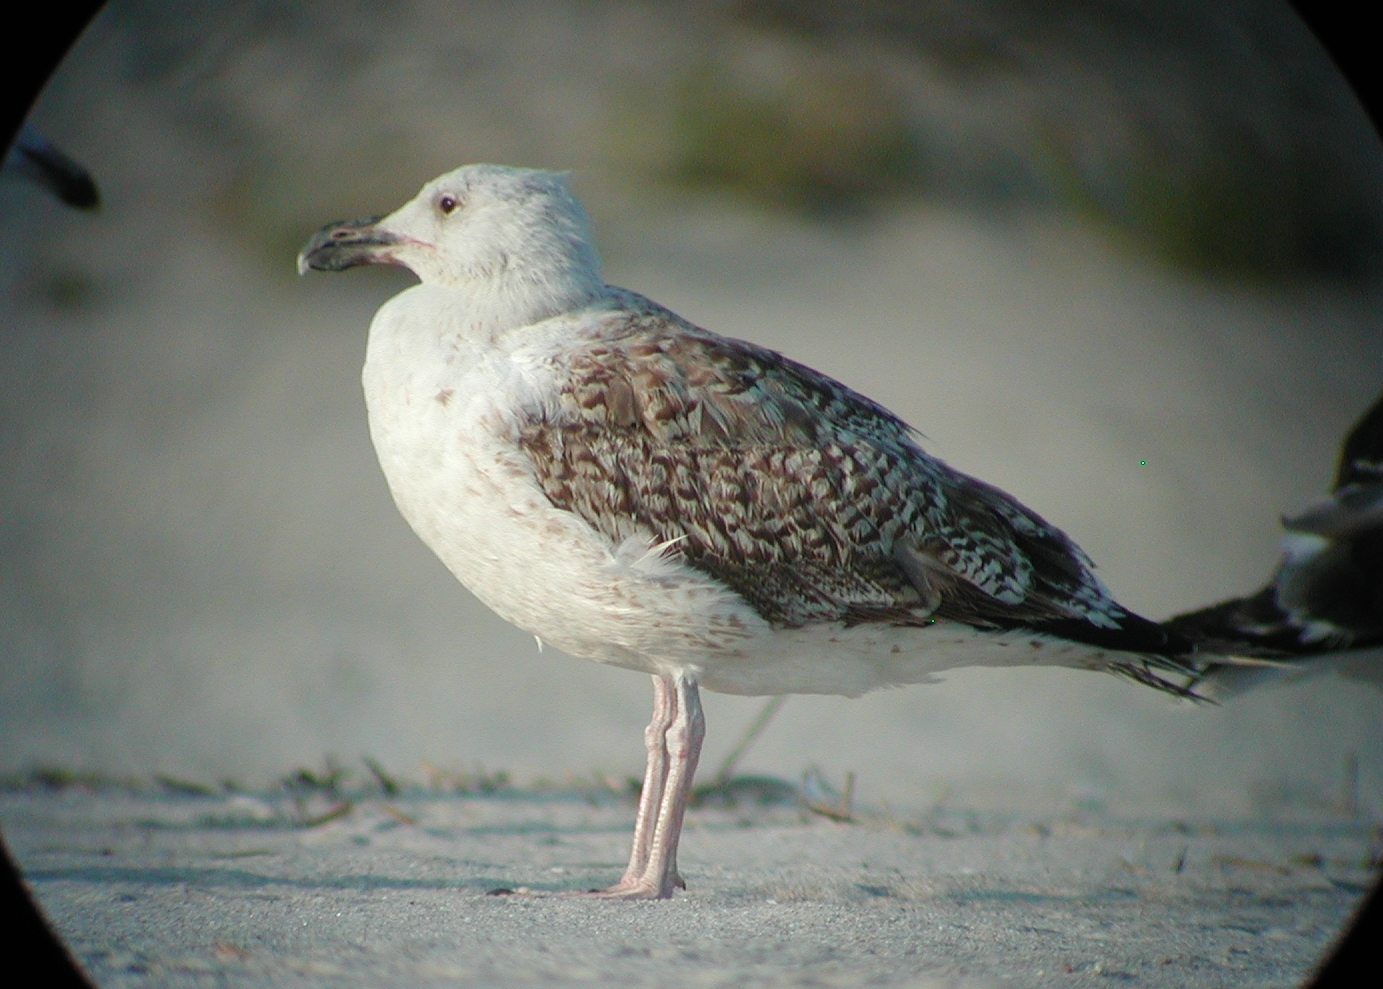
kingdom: Animalia
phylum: Chordata
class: Aves
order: Charadriiformes
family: Laridae
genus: Larus
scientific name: Larus marinus
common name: Great black-backed gull
